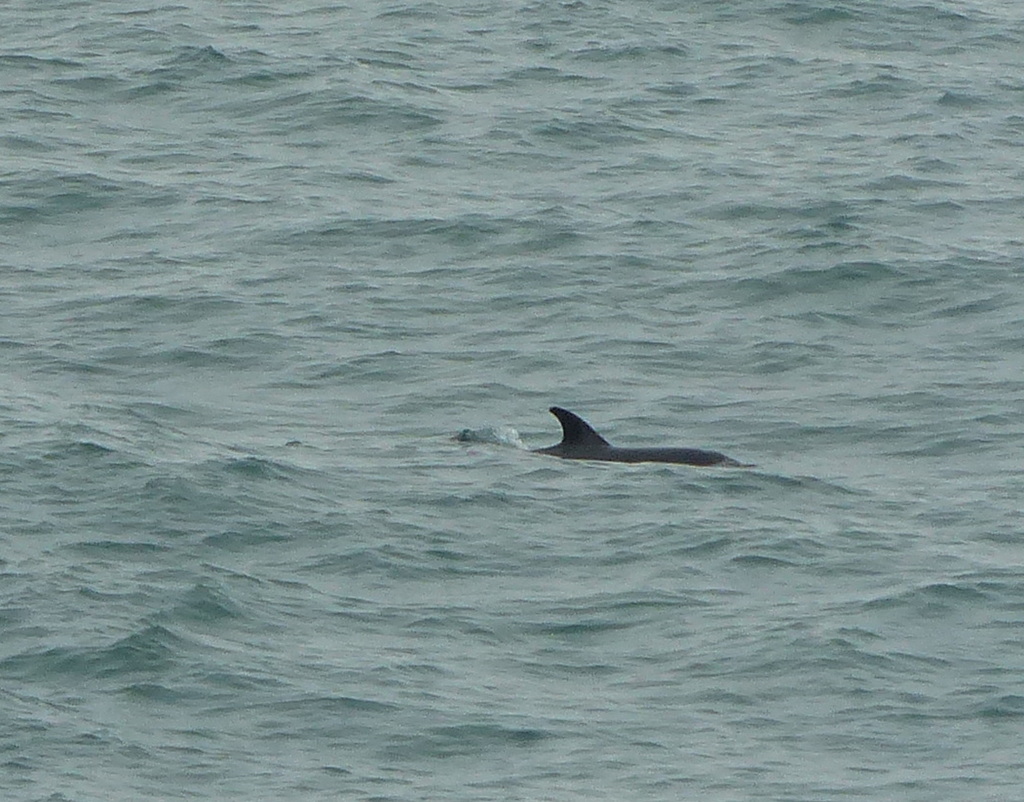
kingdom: Animalia
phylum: Chordata
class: Mammalia
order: Cetacea
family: Delphinidae
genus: Delphinus
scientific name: Delphinus delphis
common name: Common dolphin
